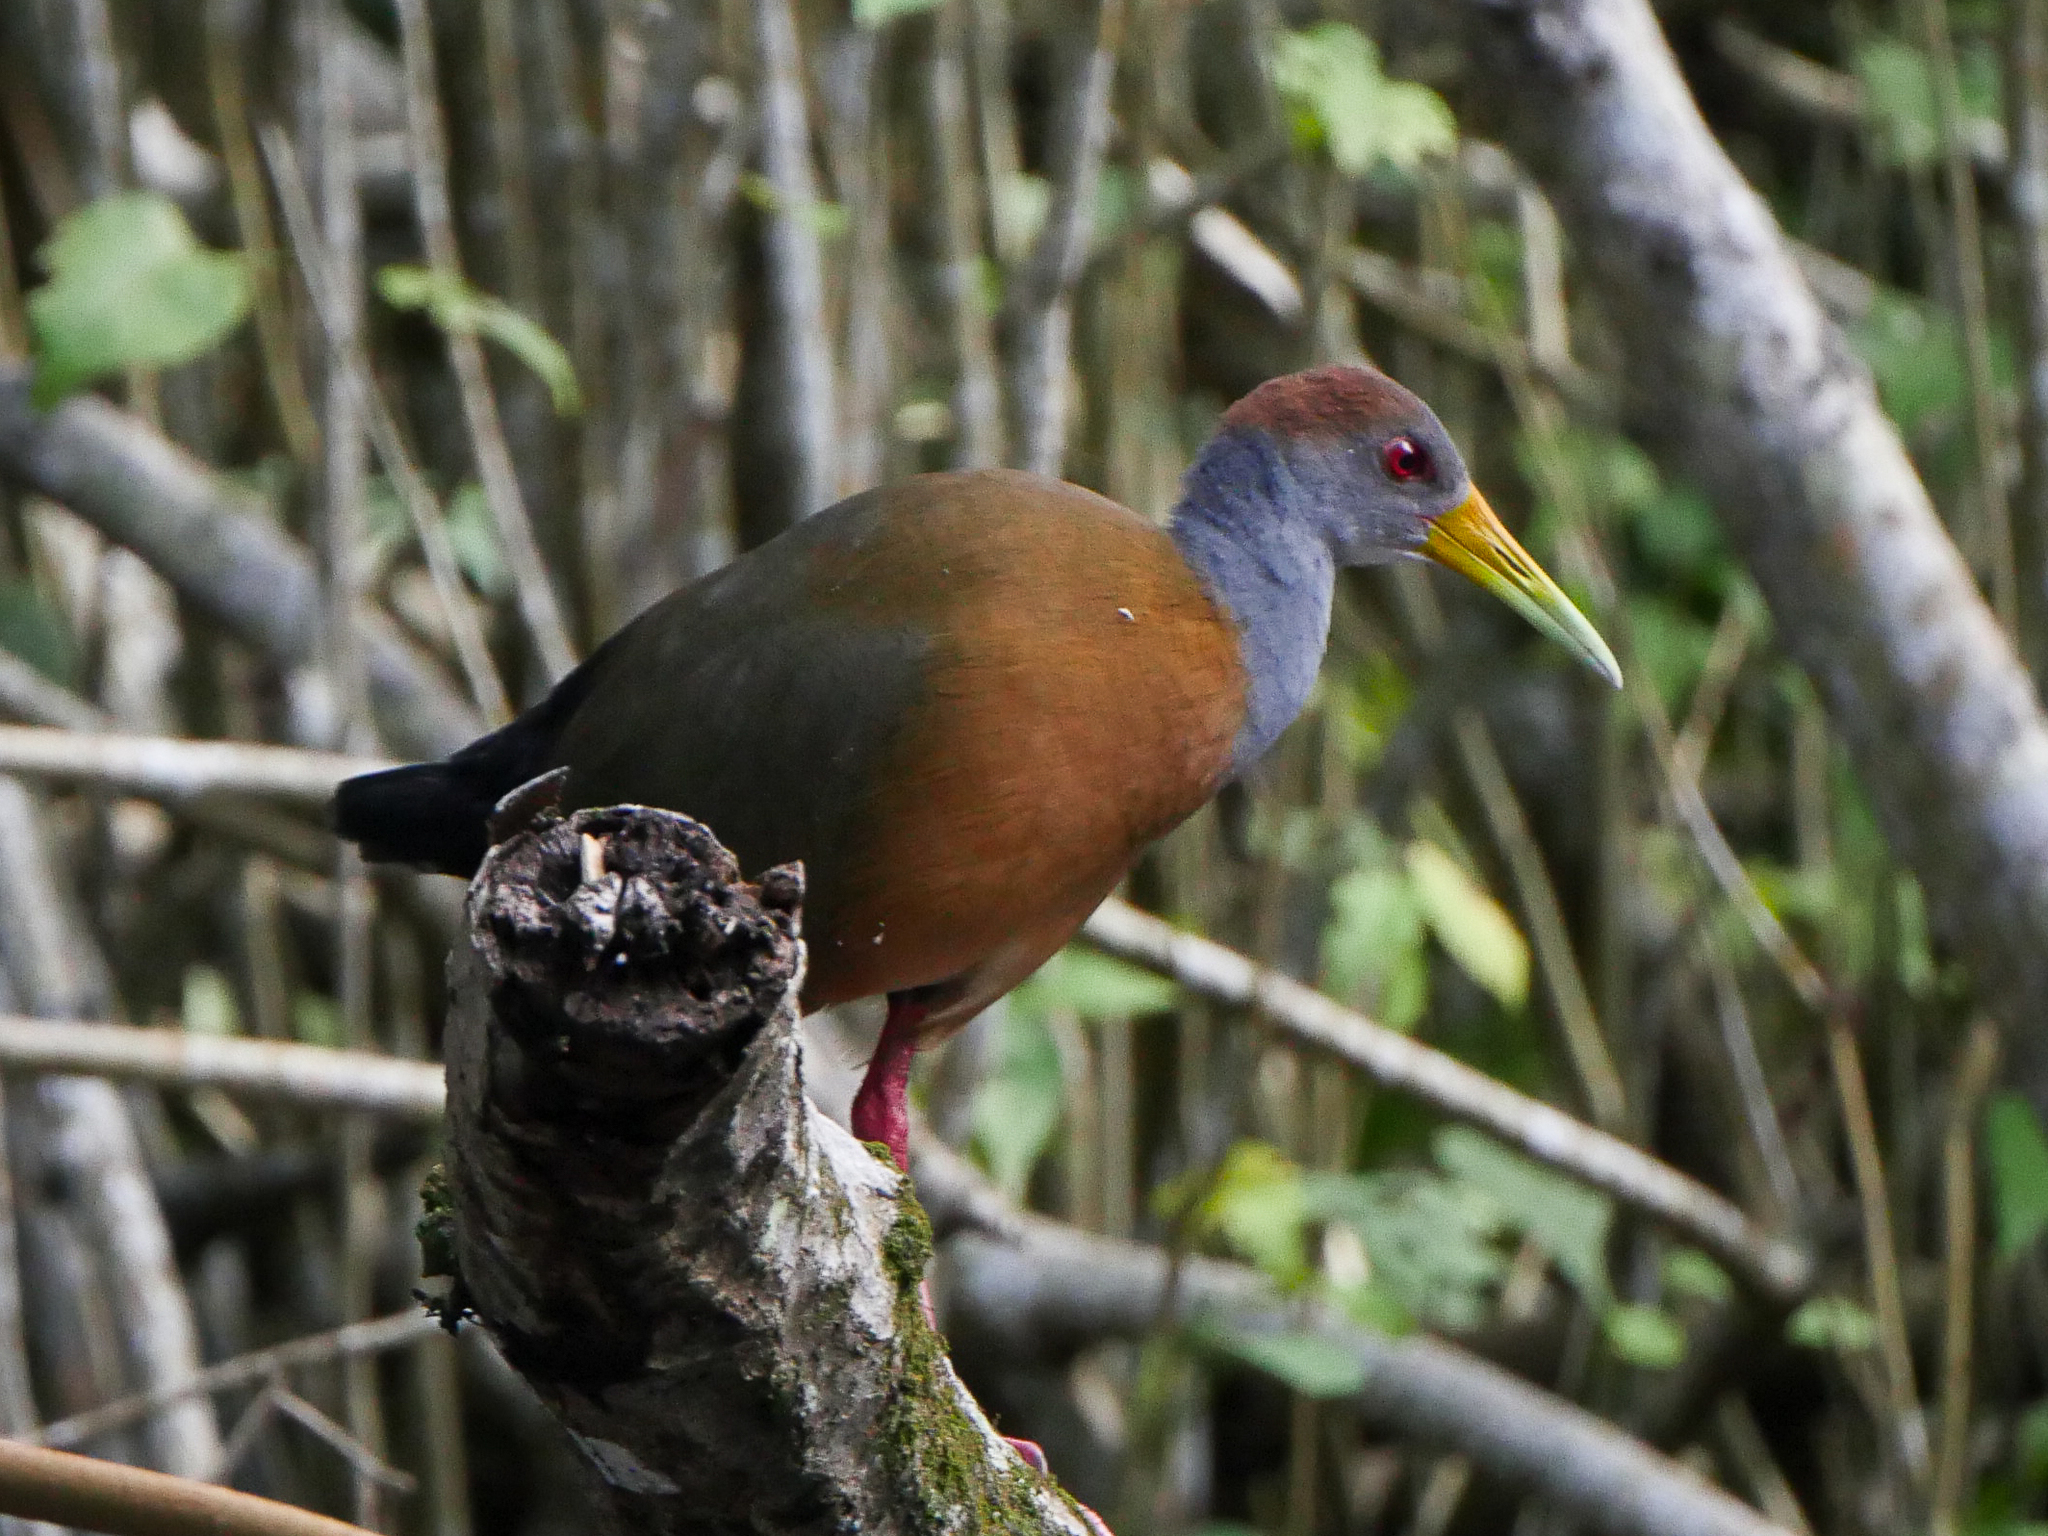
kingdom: Animalia
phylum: Chordata
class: Aves
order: Gruiformes
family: Rallidae
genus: Aramides
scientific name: Aramides albiventris
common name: Russet-naped wood-rail
